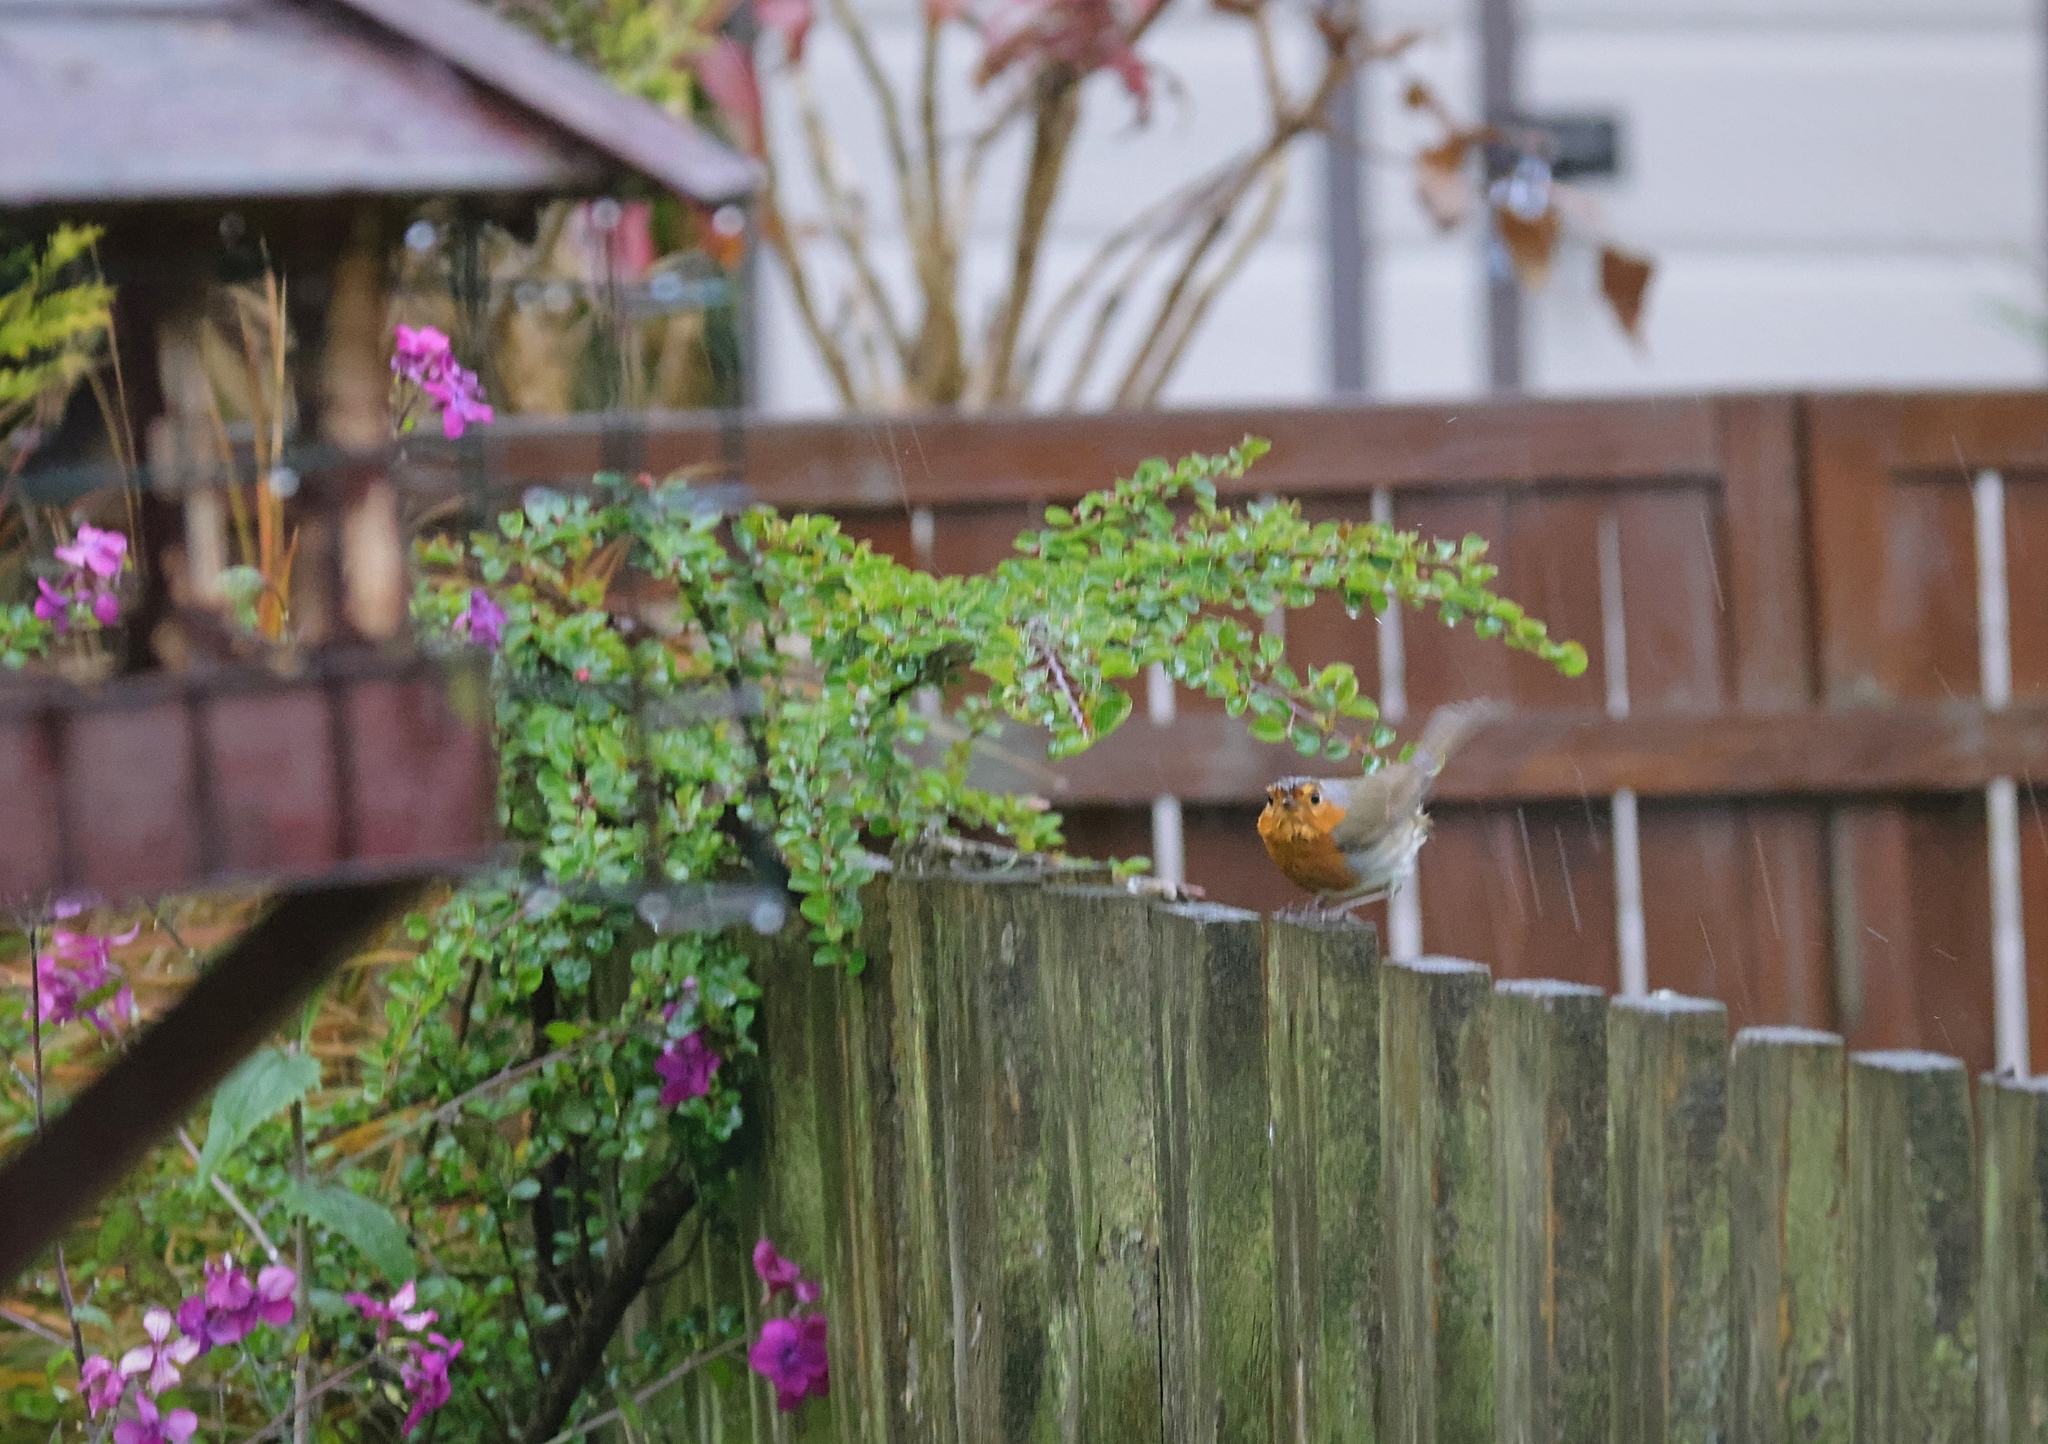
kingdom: Animalia
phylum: Chordata
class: Aves
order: Passeriformes
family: Muscicapidae
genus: Erithacus
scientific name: Erithacus rubecula
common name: European robin
